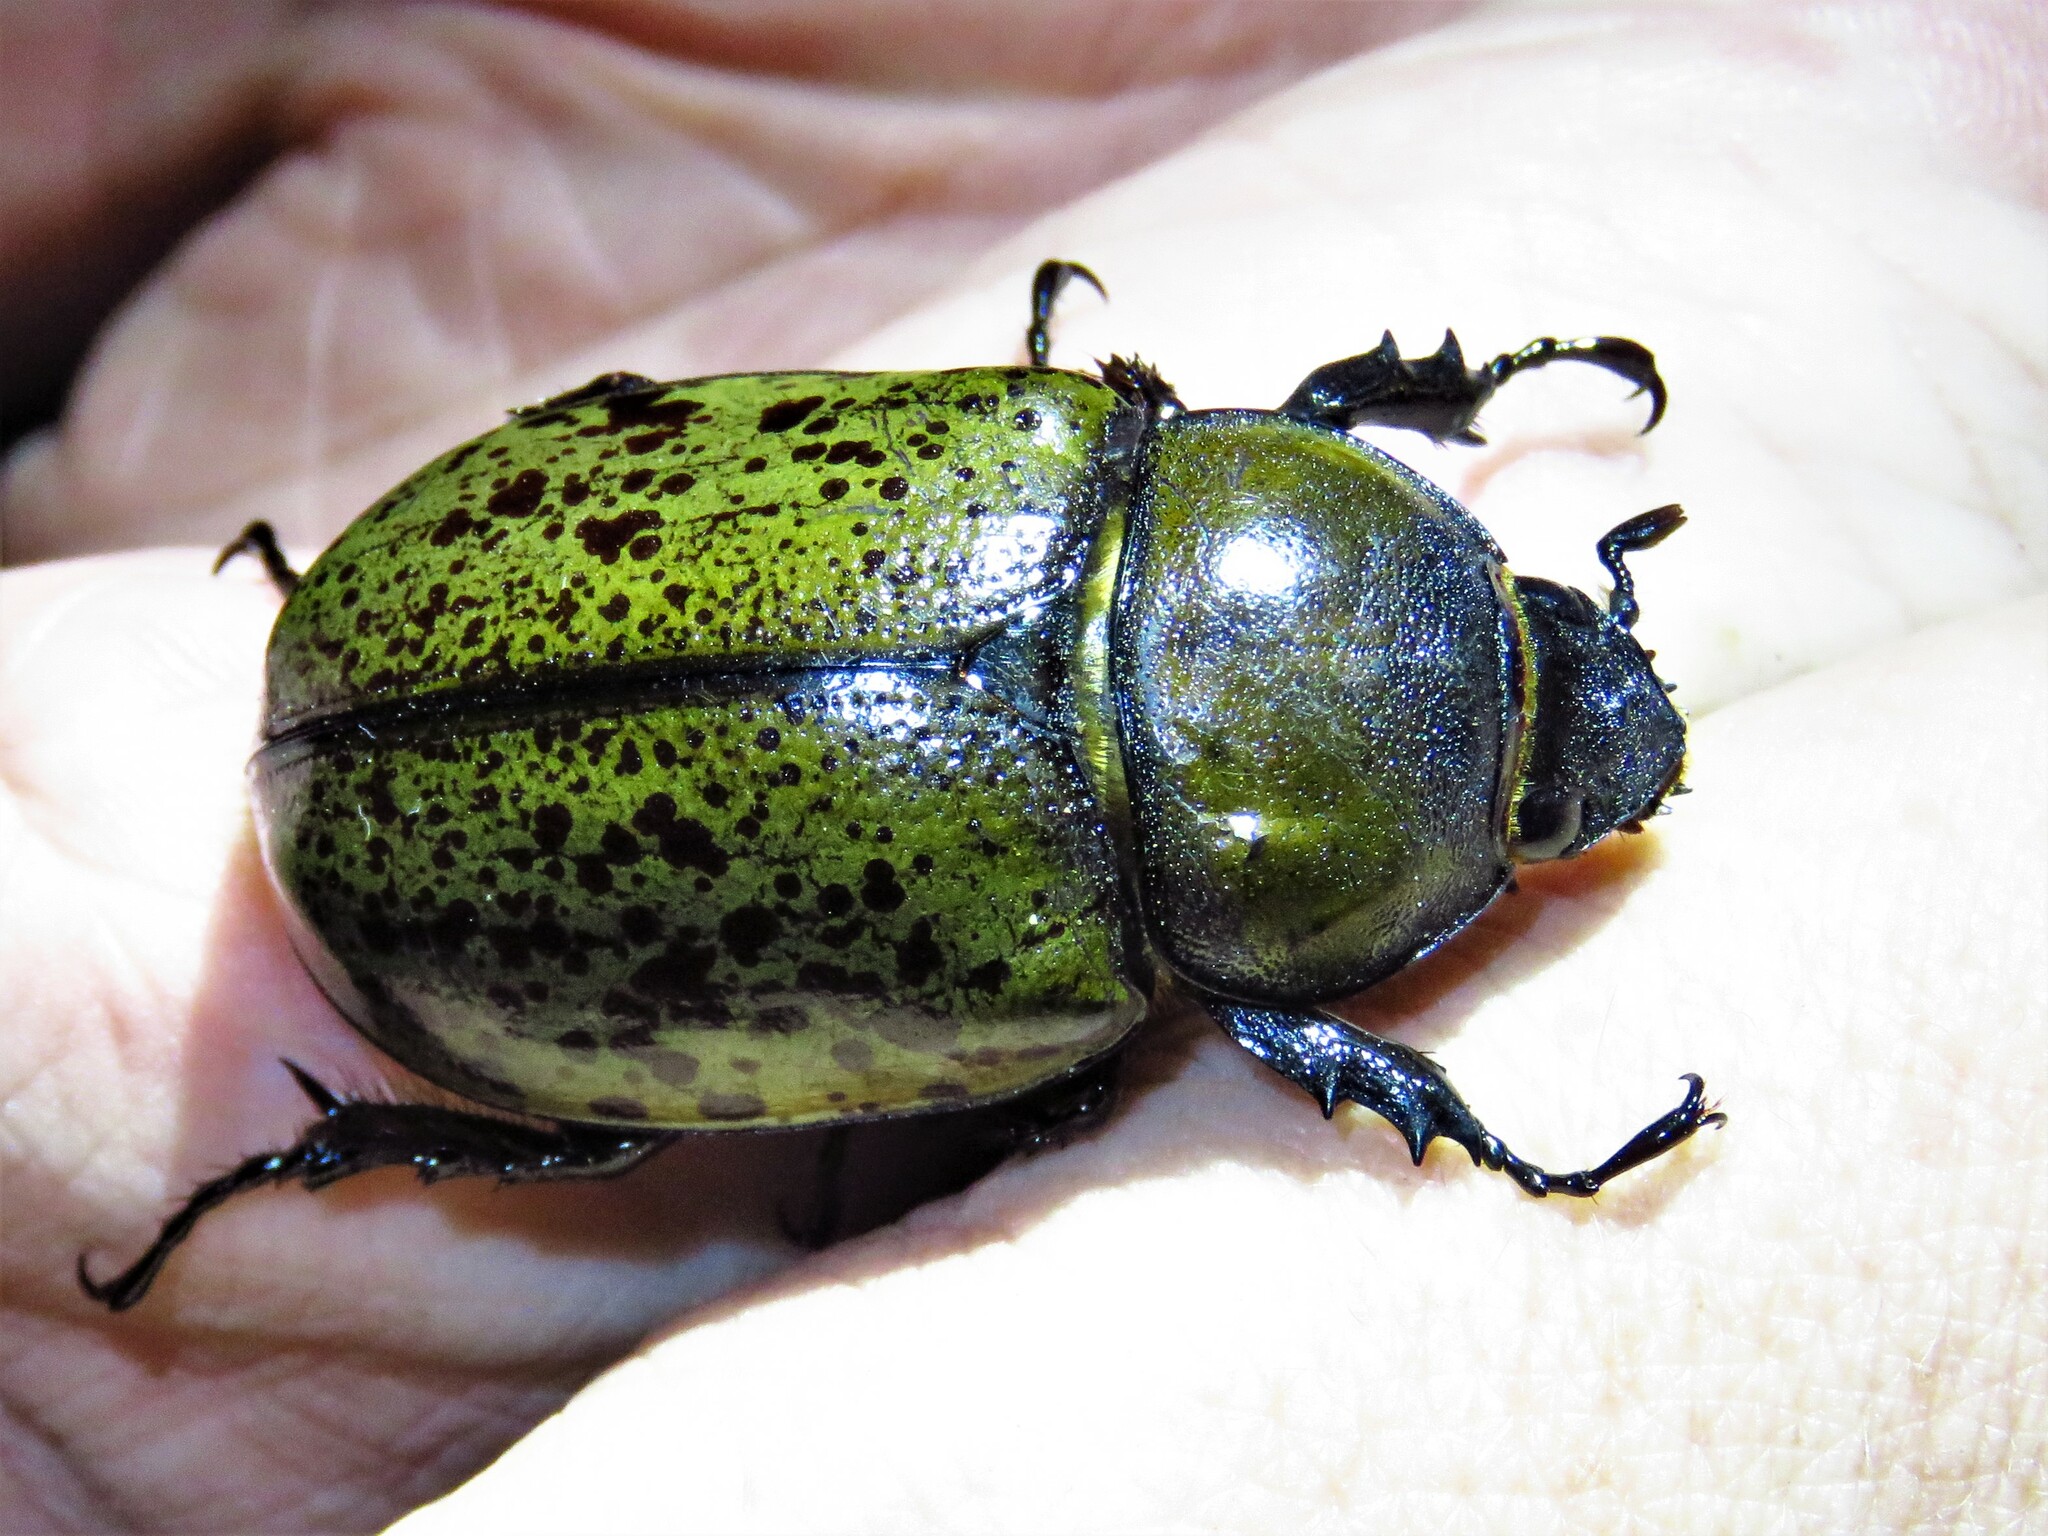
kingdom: Animalia
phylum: Arthropoda
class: Insecta
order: Coleoptera
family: Scarabaeidae
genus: Dynastes
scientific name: Dynastes tityus
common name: Eastern hercules beetle
